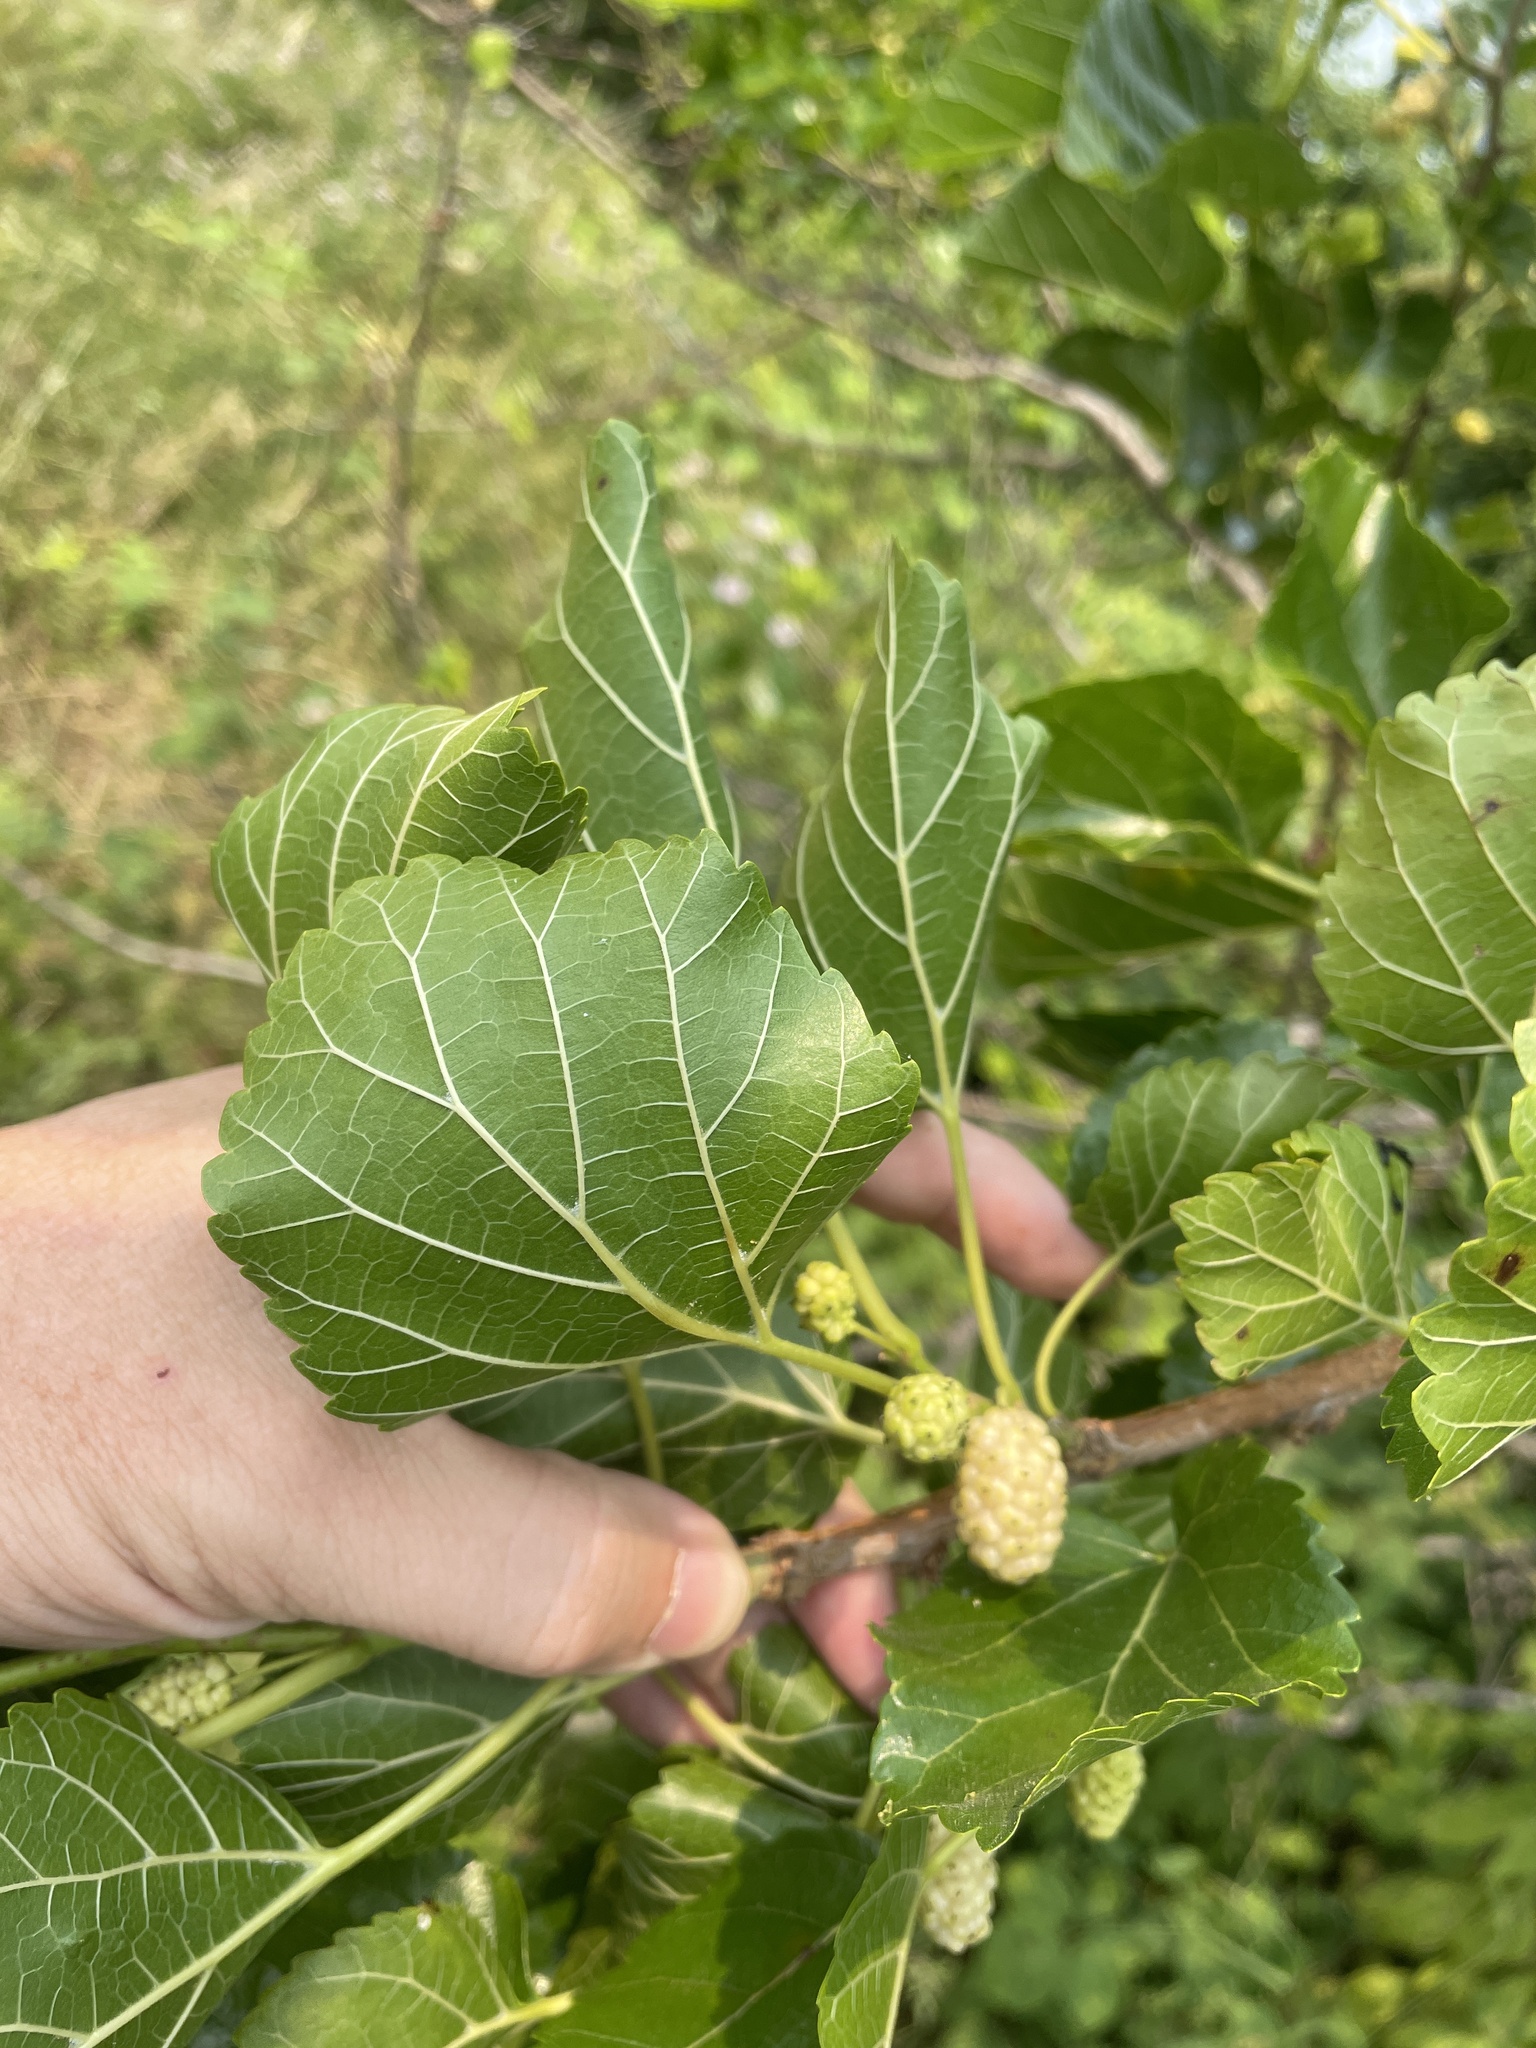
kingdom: Plantae
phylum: Tracheophyta
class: Magnoliopsida
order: Rosales
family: Moraceae
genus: Morus
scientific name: Morus alba
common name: White mulberry
